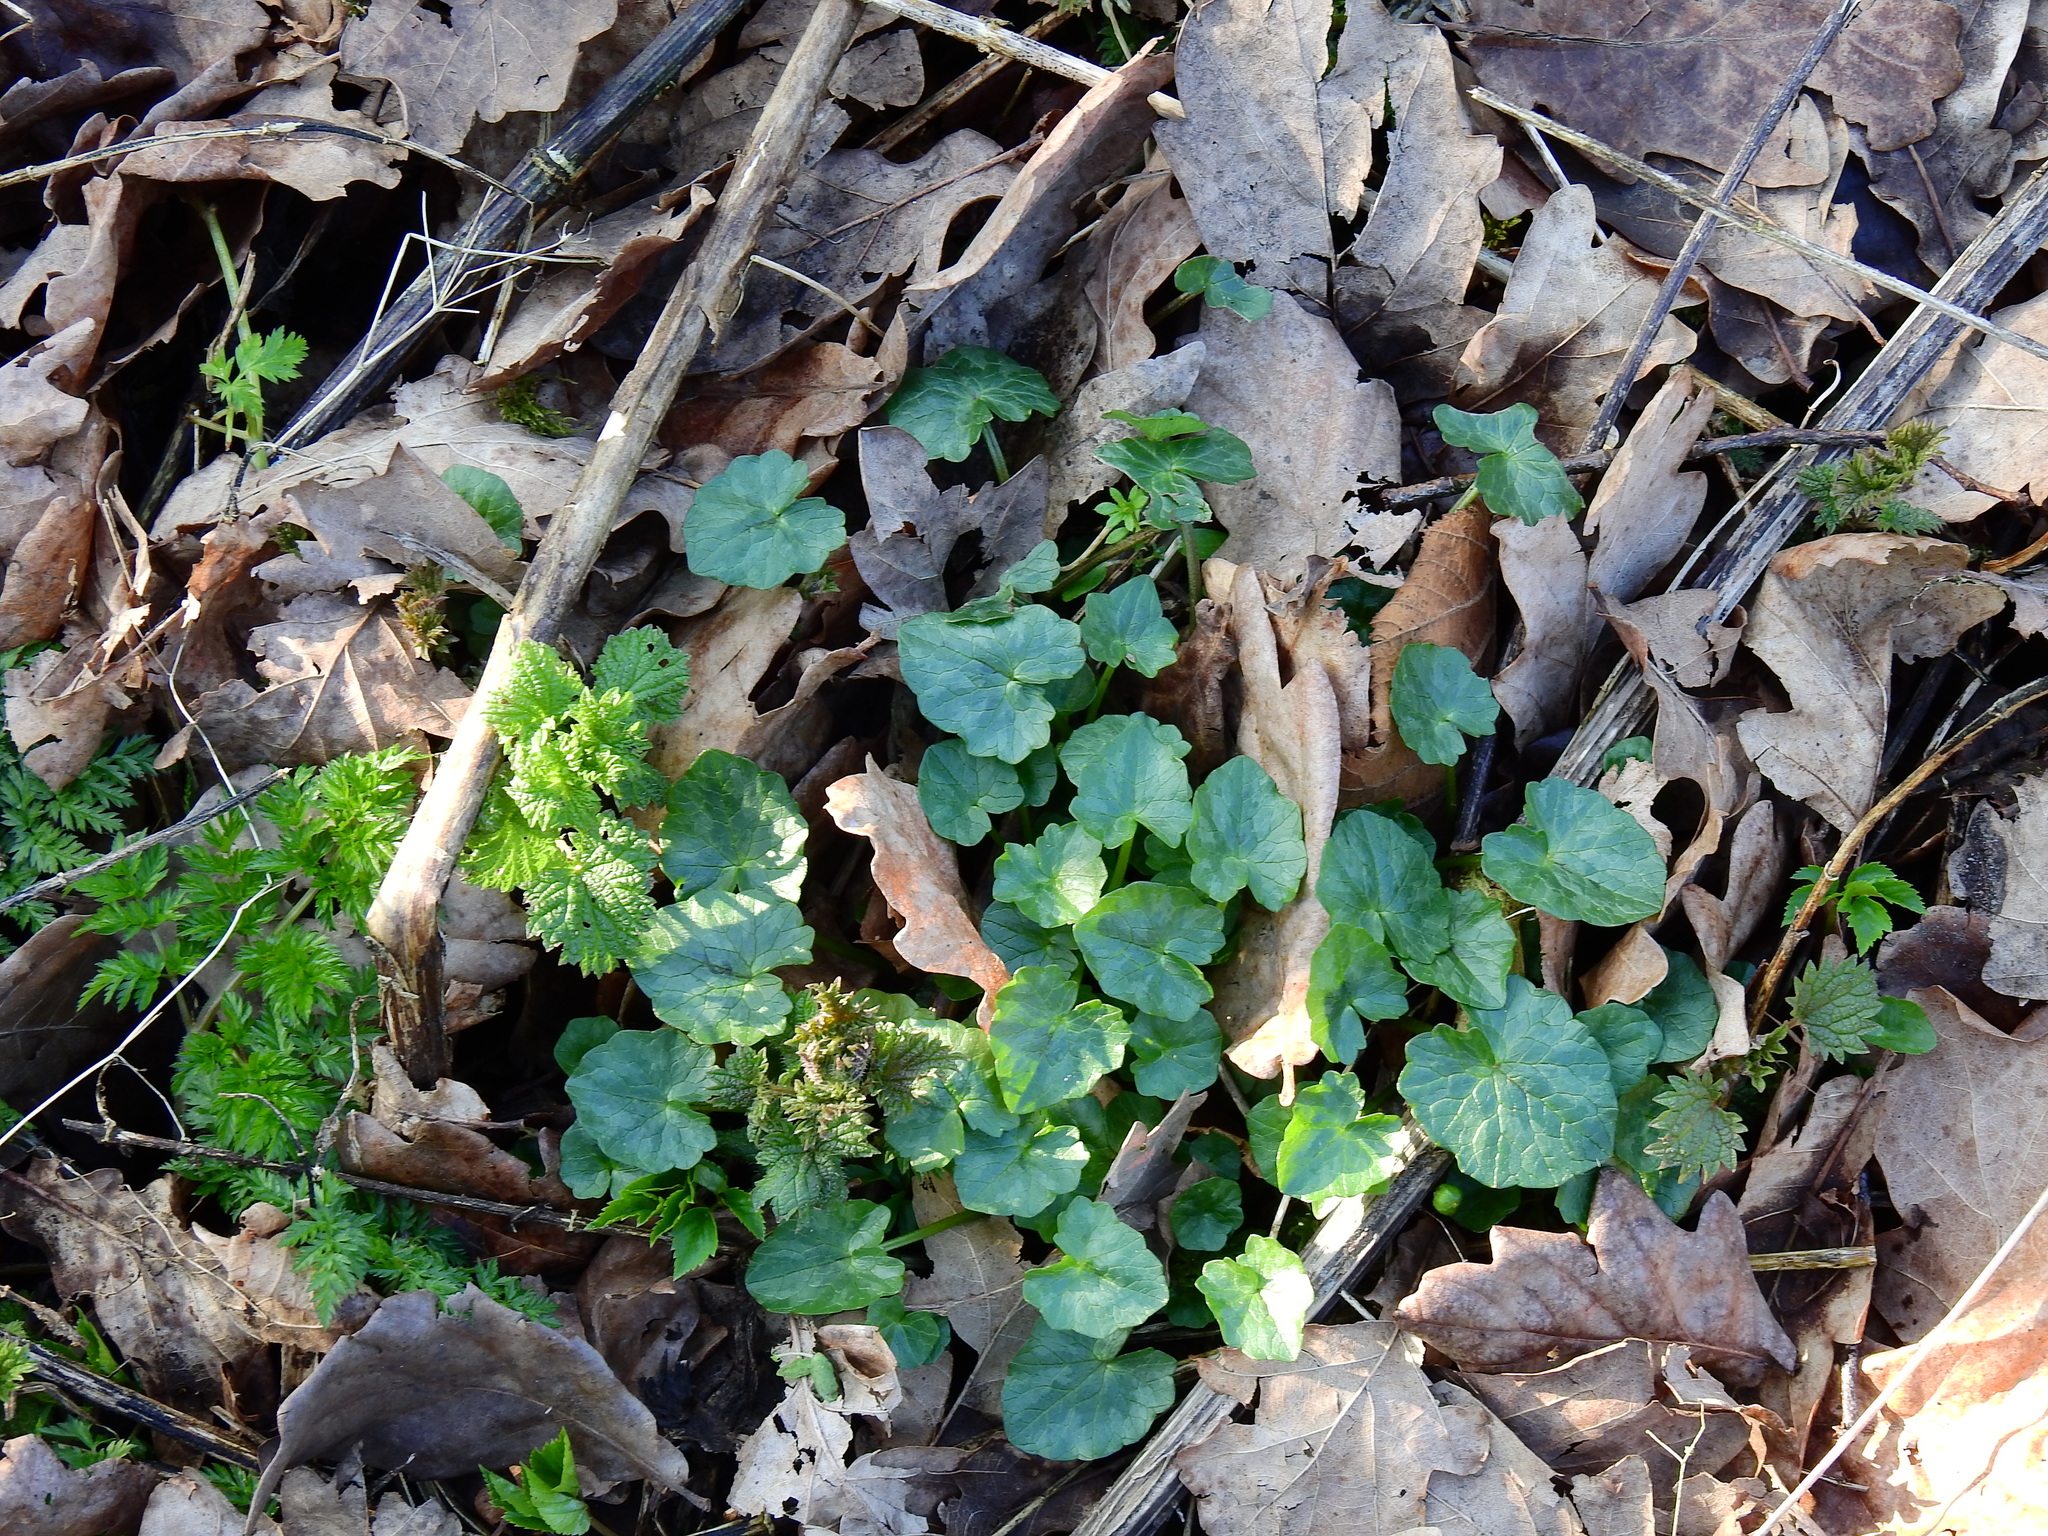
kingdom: Plantae
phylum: Tracheophyta
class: Magnoliopsida
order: Ranunculales
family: Ranunculaceae
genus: Ficaria
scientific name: Ficaria verna
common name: Lesser celandine
